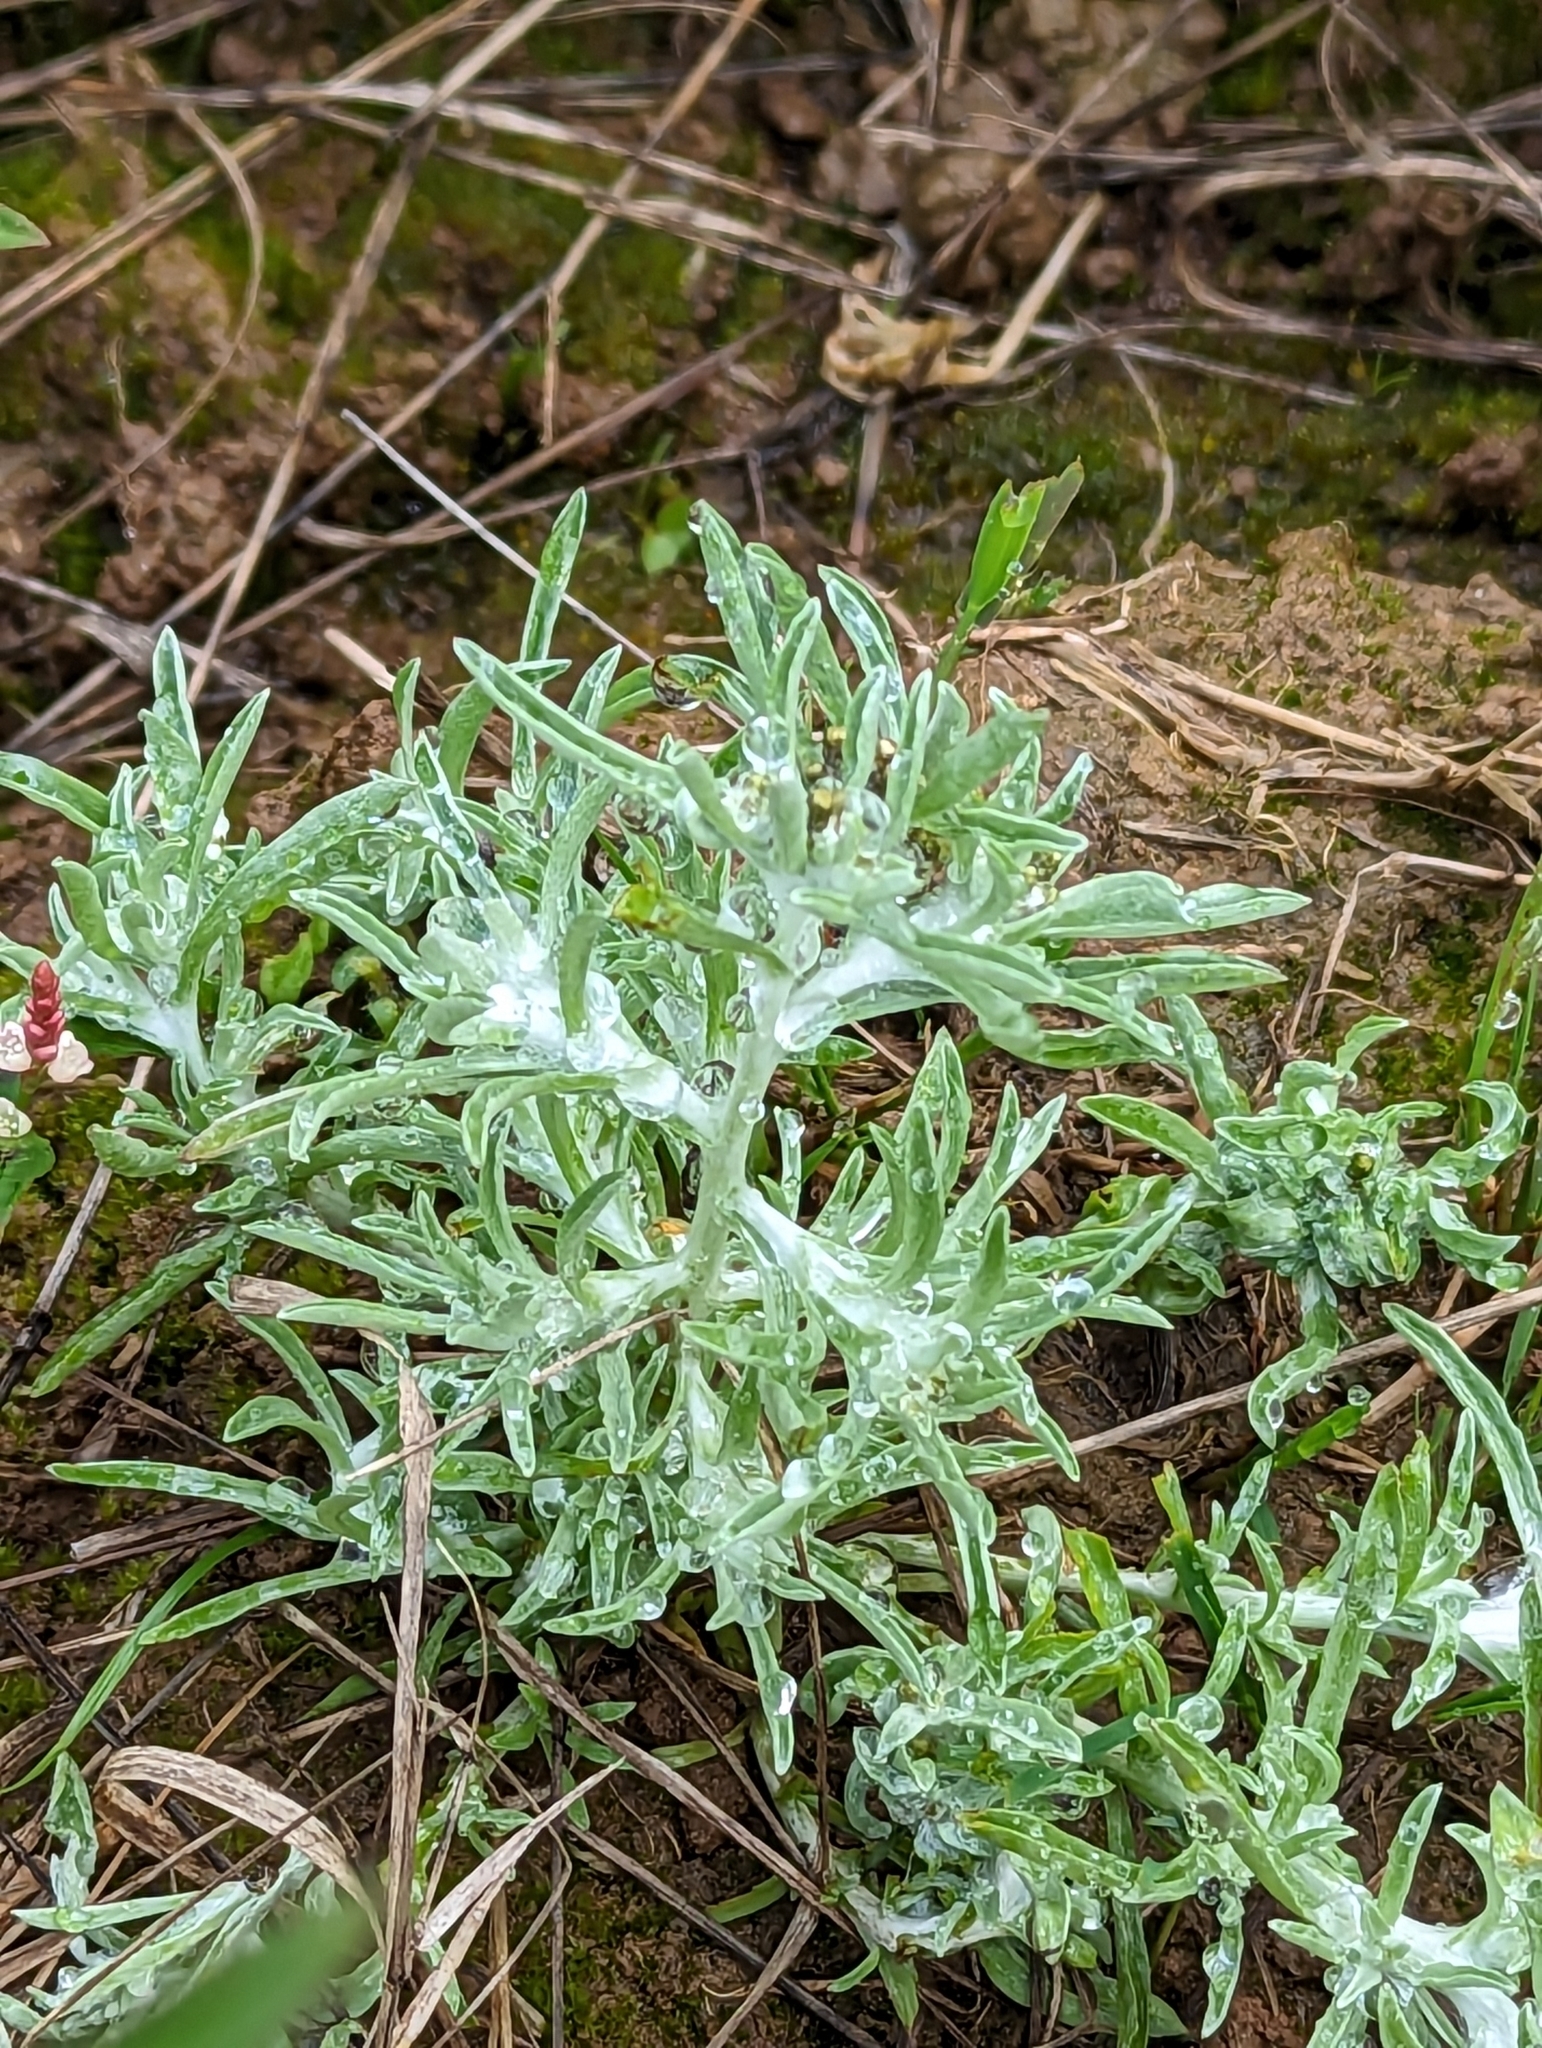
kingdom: Plantae
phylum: Tracheophyta
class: Magnoliopsida
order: Asterales
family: Asteraceae
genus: Gnaphalium
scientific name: Gnaphalium uliginosum
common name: Marsh cudweed
